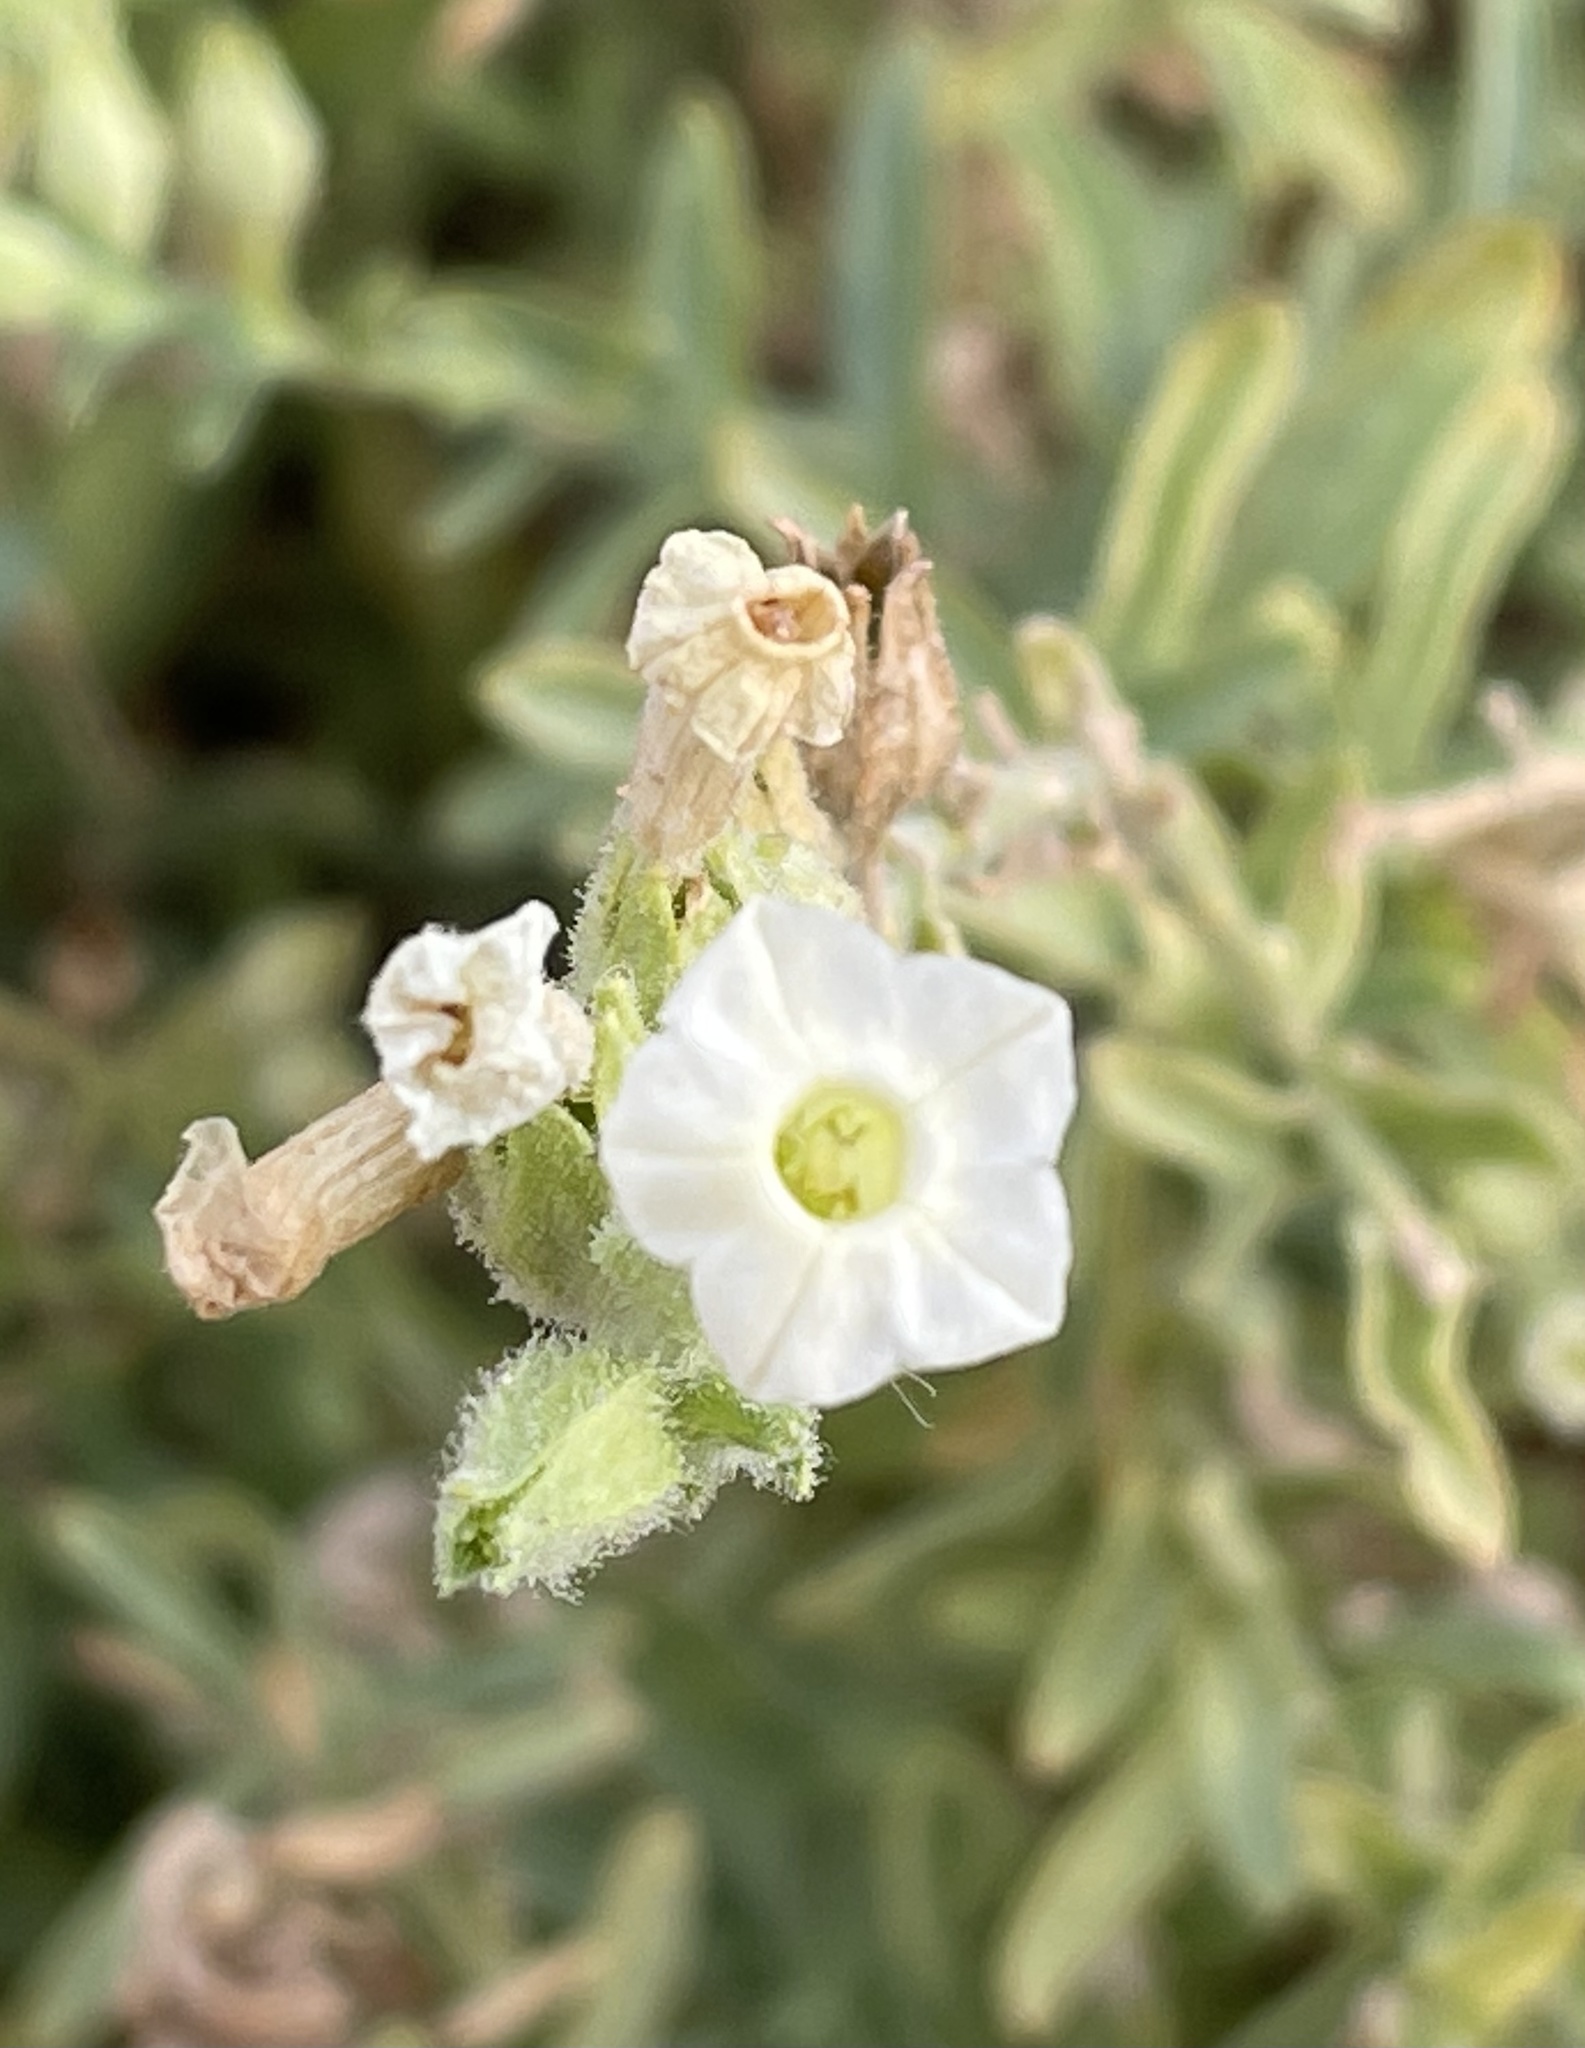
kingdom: Plantae
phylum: Tracheophyta
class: Magnoliopsida
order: Solanales
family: Solanaceae
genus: Nicotiana
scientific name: Nicotiana obtusifolia
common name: Desert tobacco
